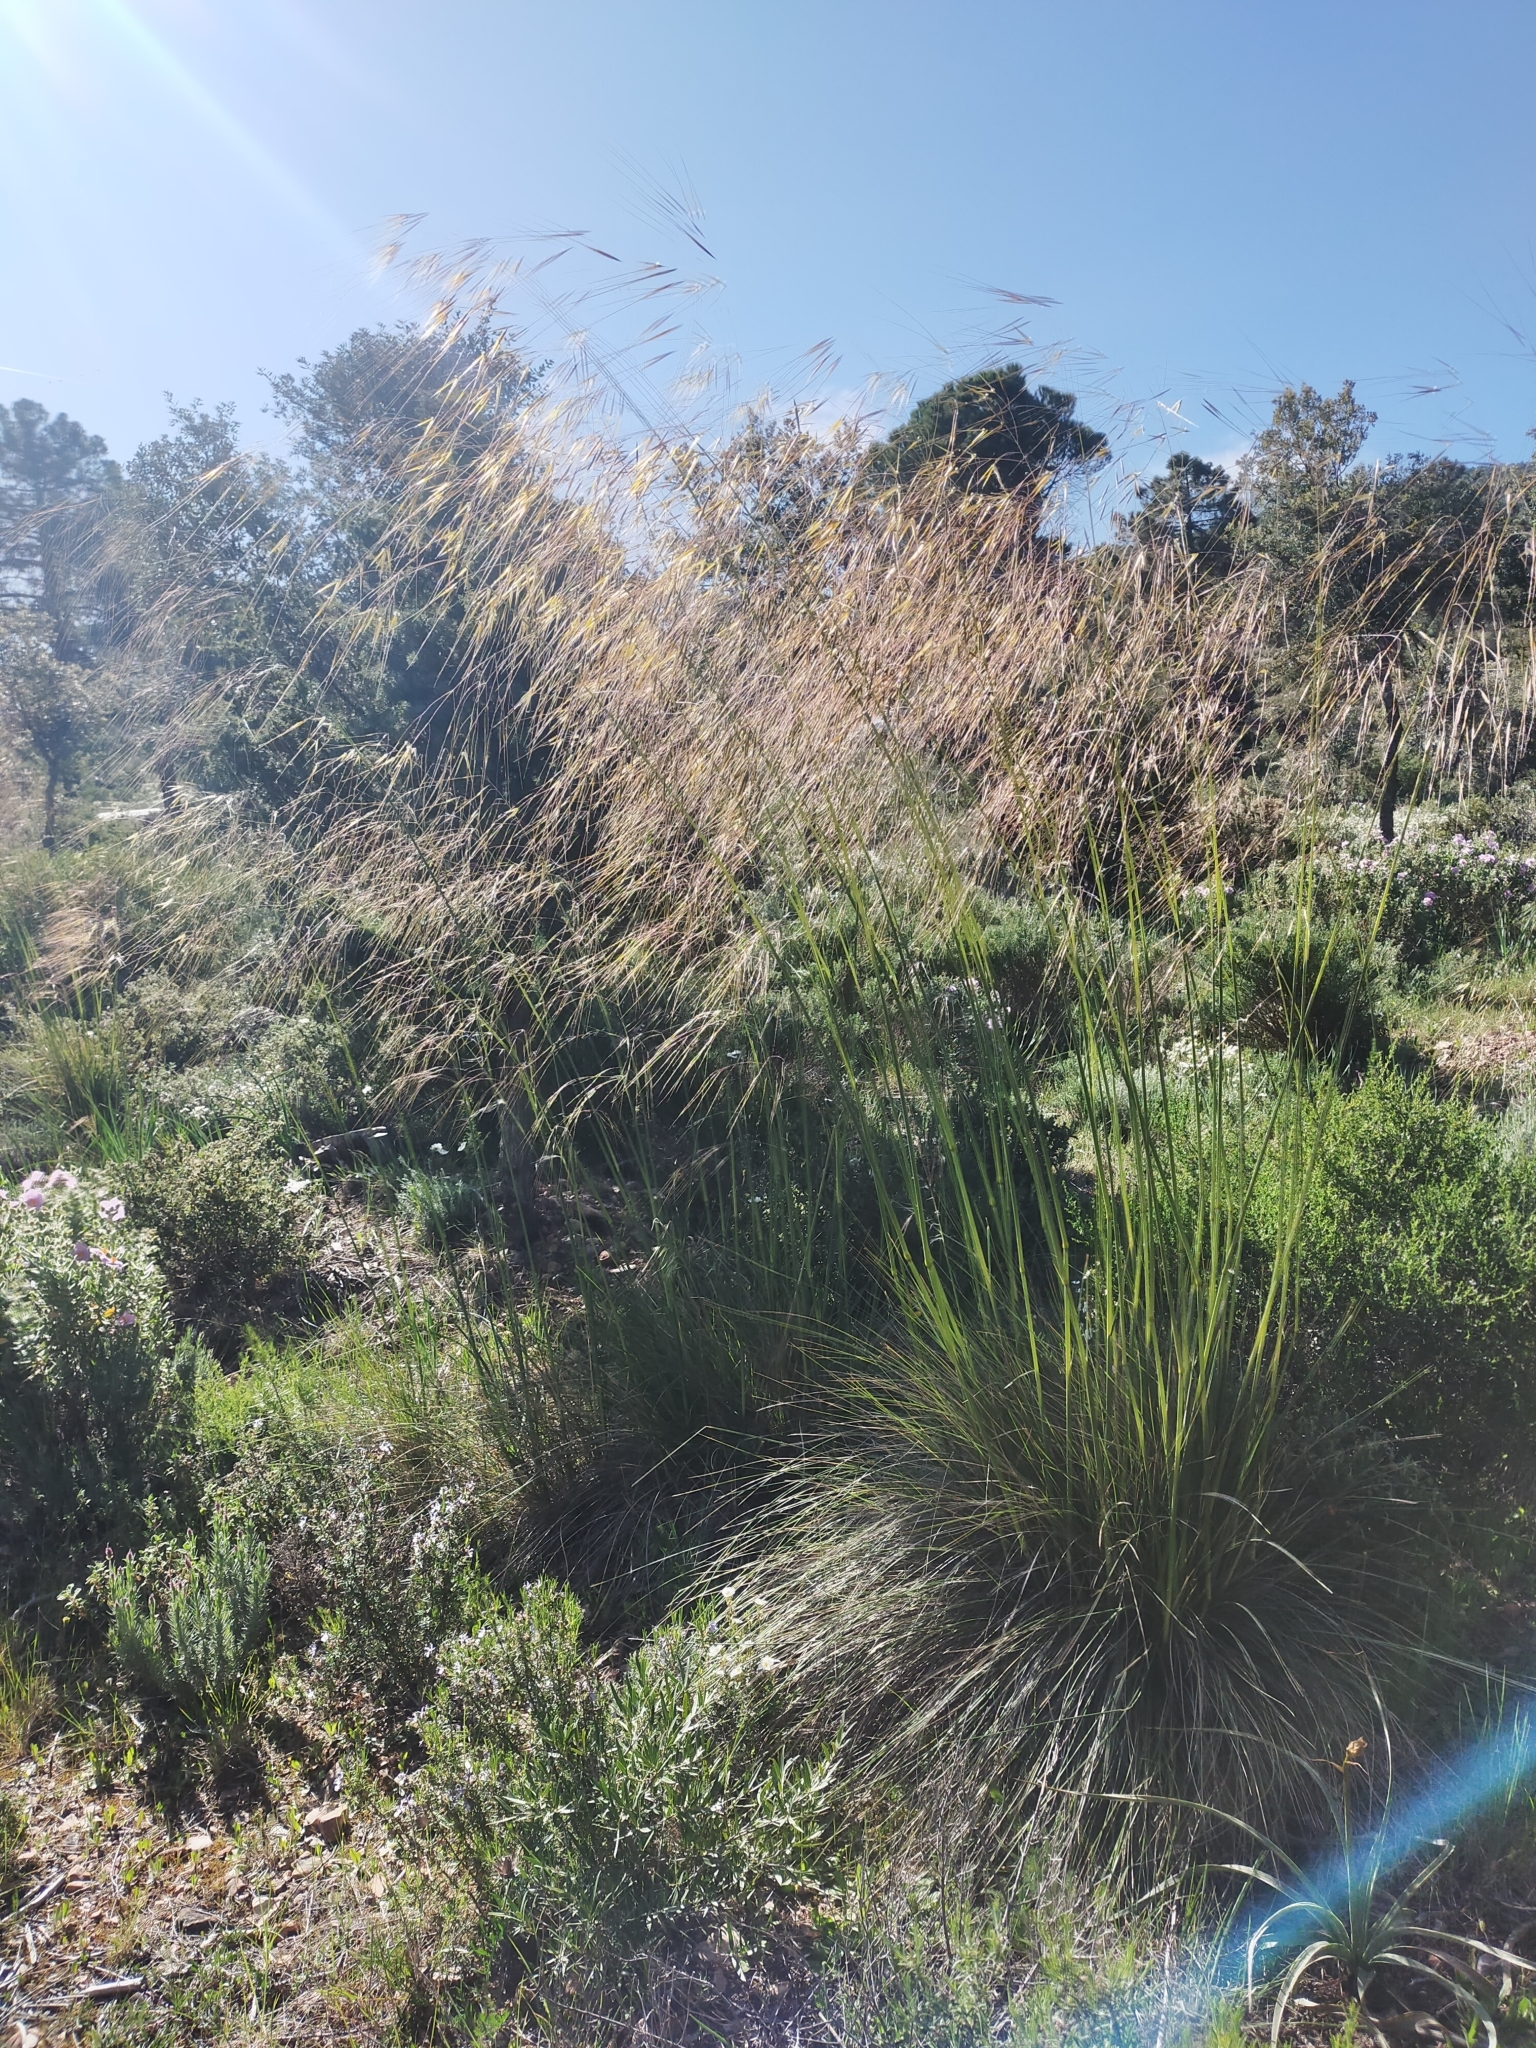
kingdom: Plantae
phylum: Tracheophyta
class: Liliopsida
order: Poales
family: Poaceae
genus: Celtica
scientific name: Celtica gigantea
